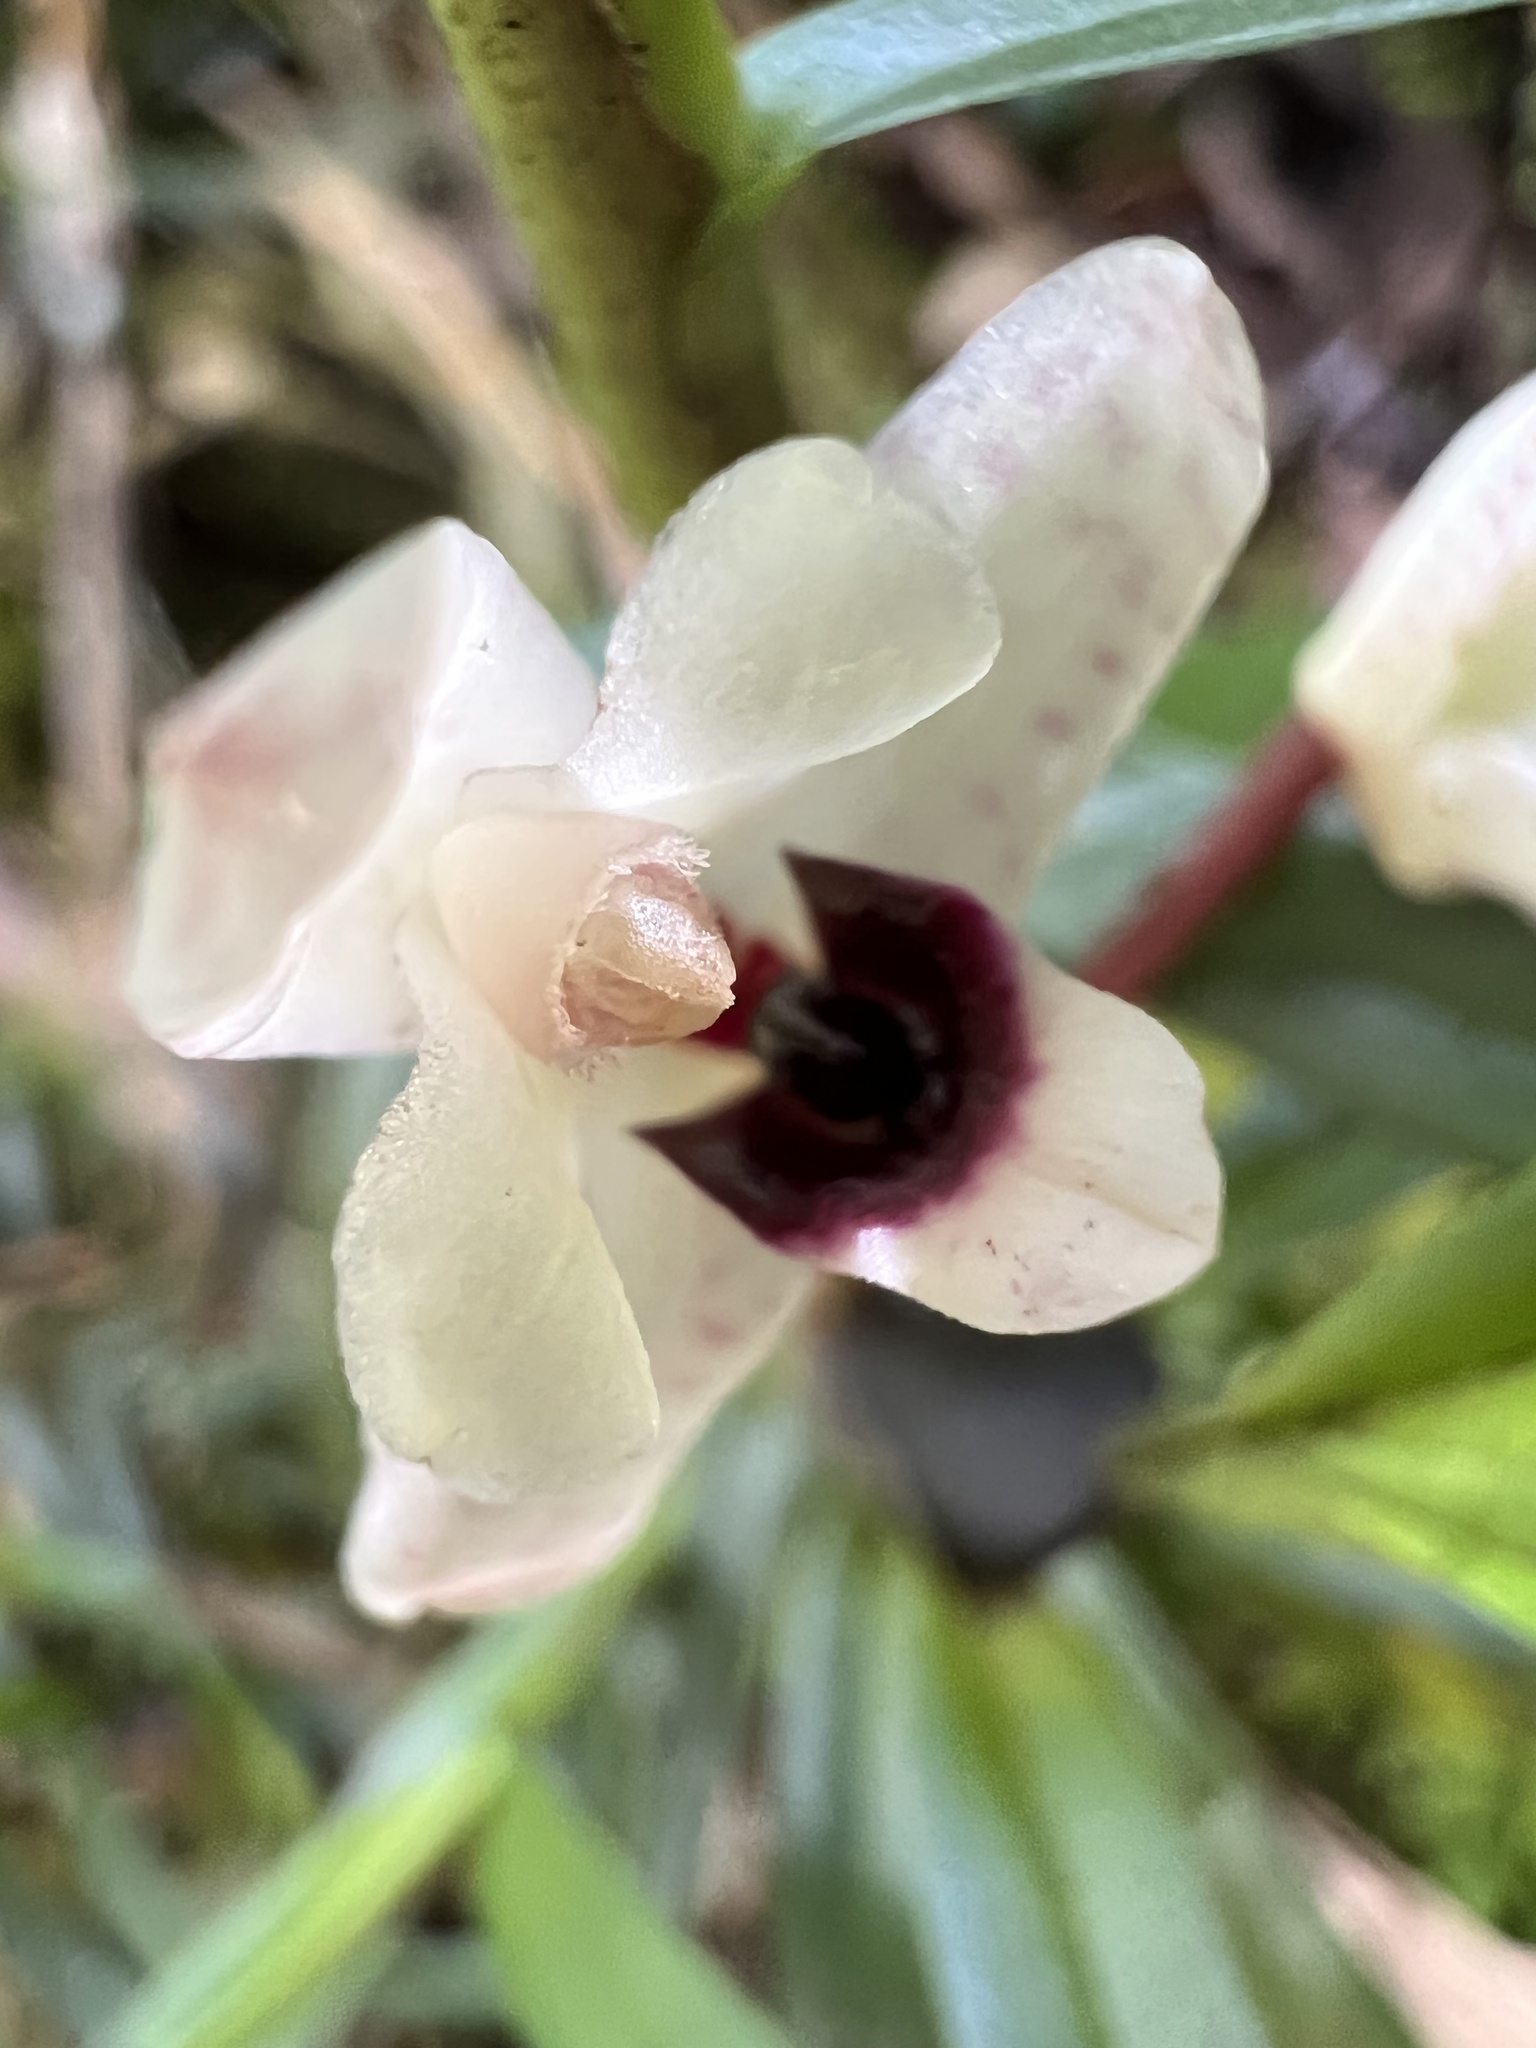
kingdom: Plantae
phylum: Tracheophyta
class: Liliopsida
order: Asparagales
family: Orchidaceae
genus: Maxillaria
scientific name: Maxillaria lawrenceana
